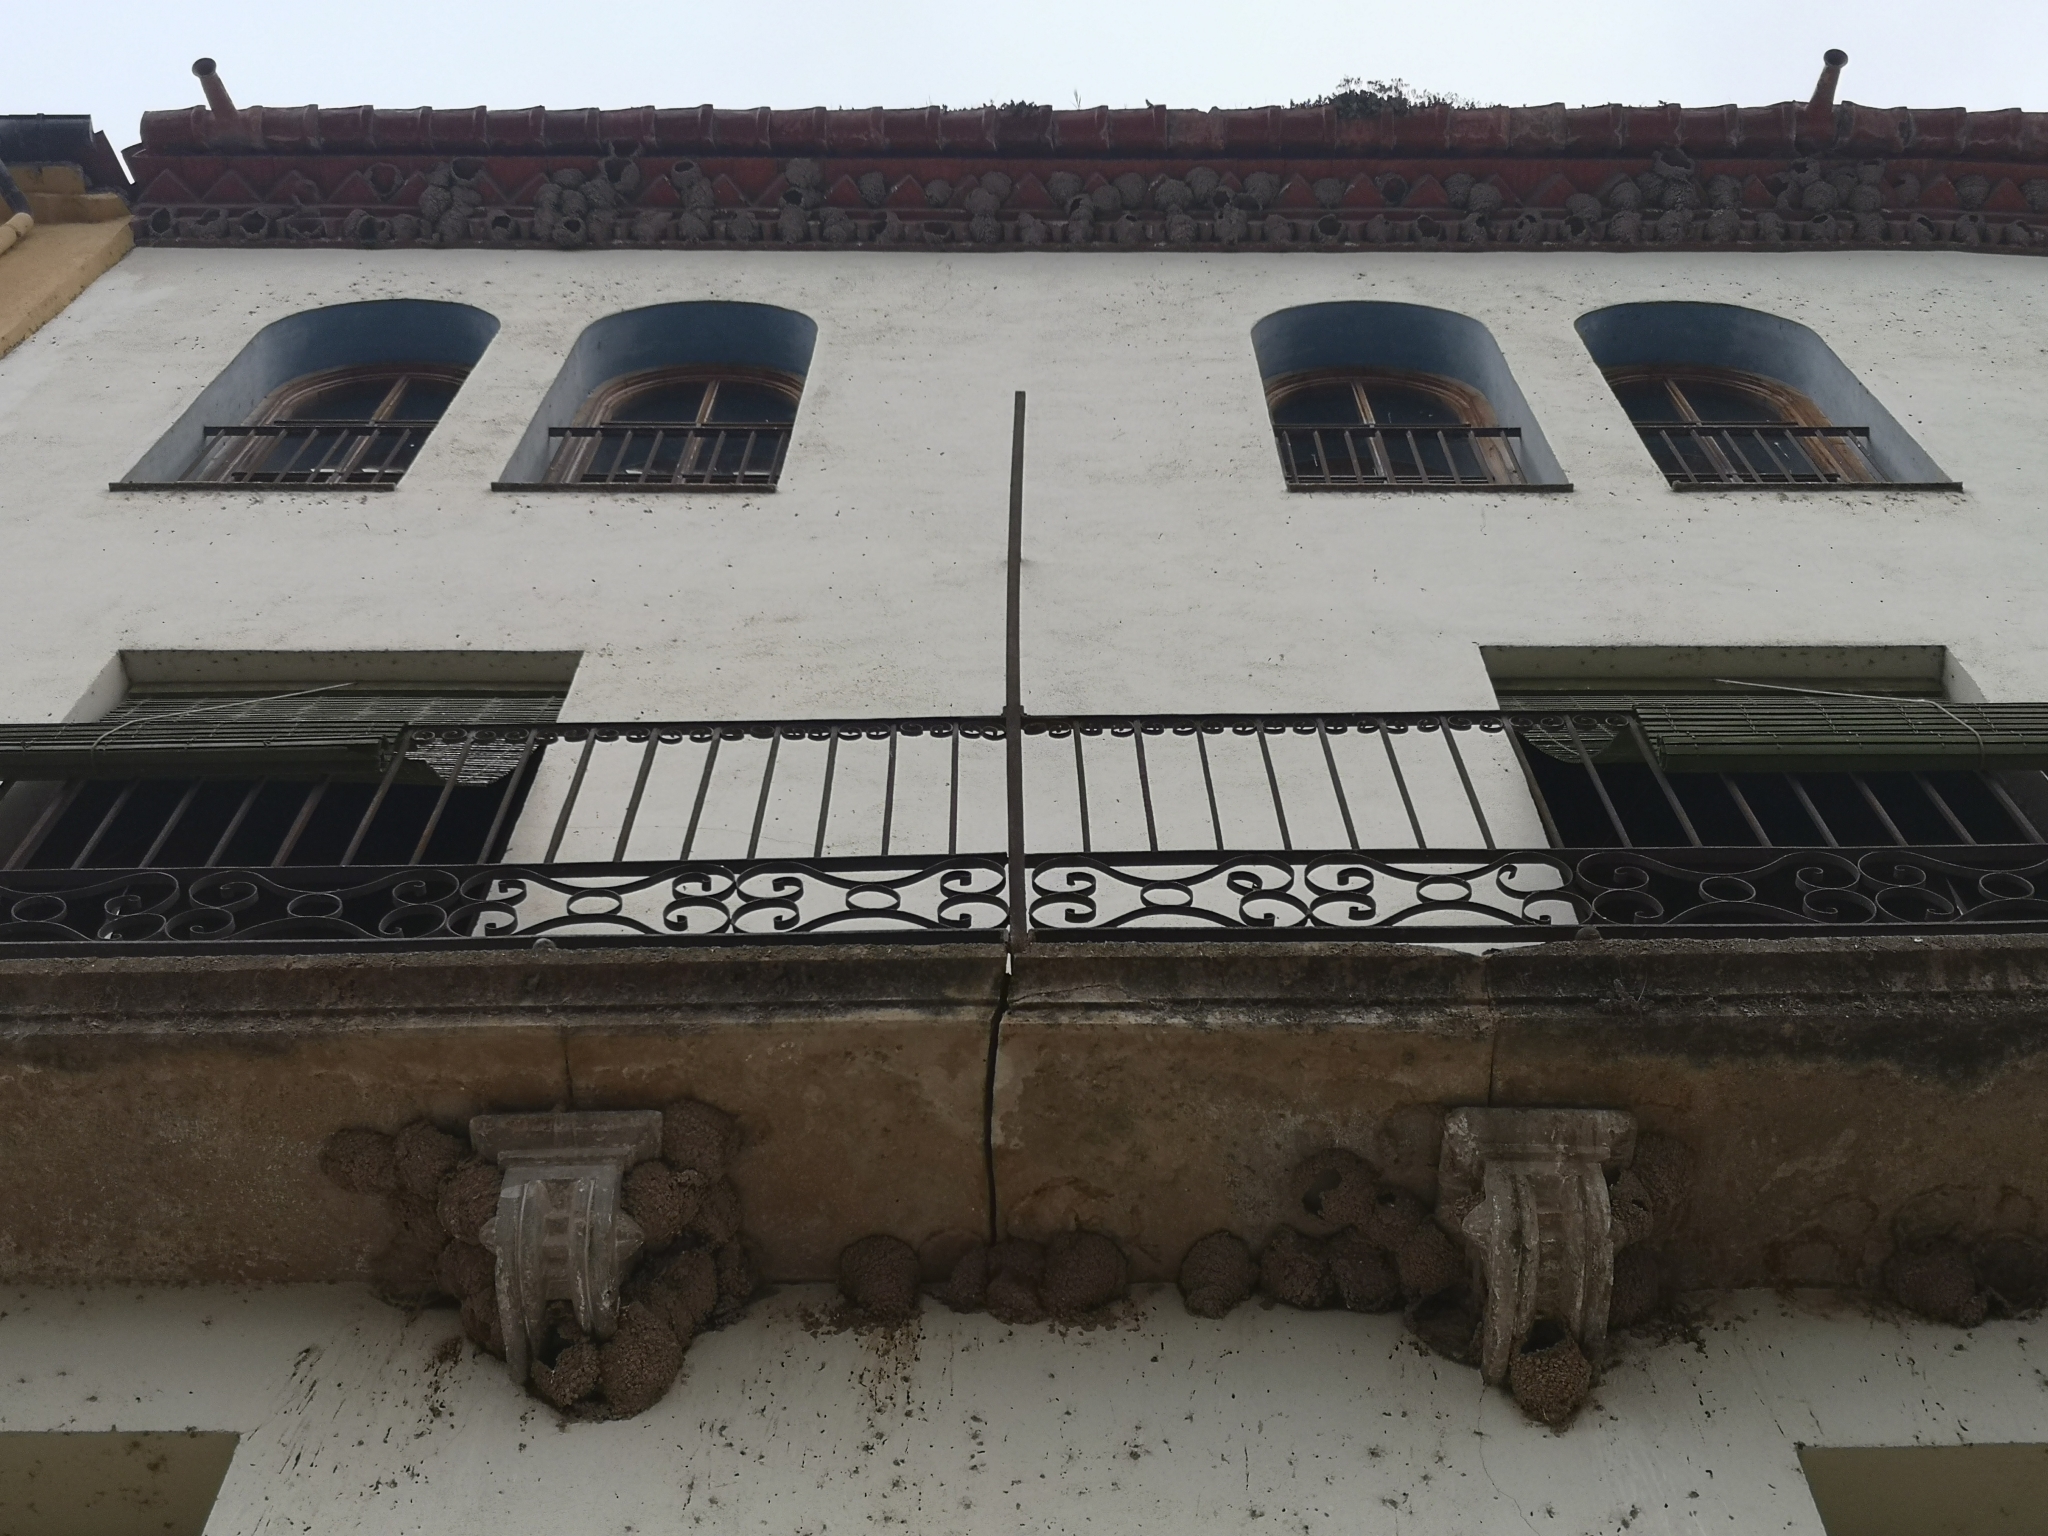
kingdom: Animalia
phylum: Chordata
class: Aves
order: Passeriformes
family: Hirundinidae
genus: Delichon
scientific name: Delichon urbicum
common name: Common house martin
